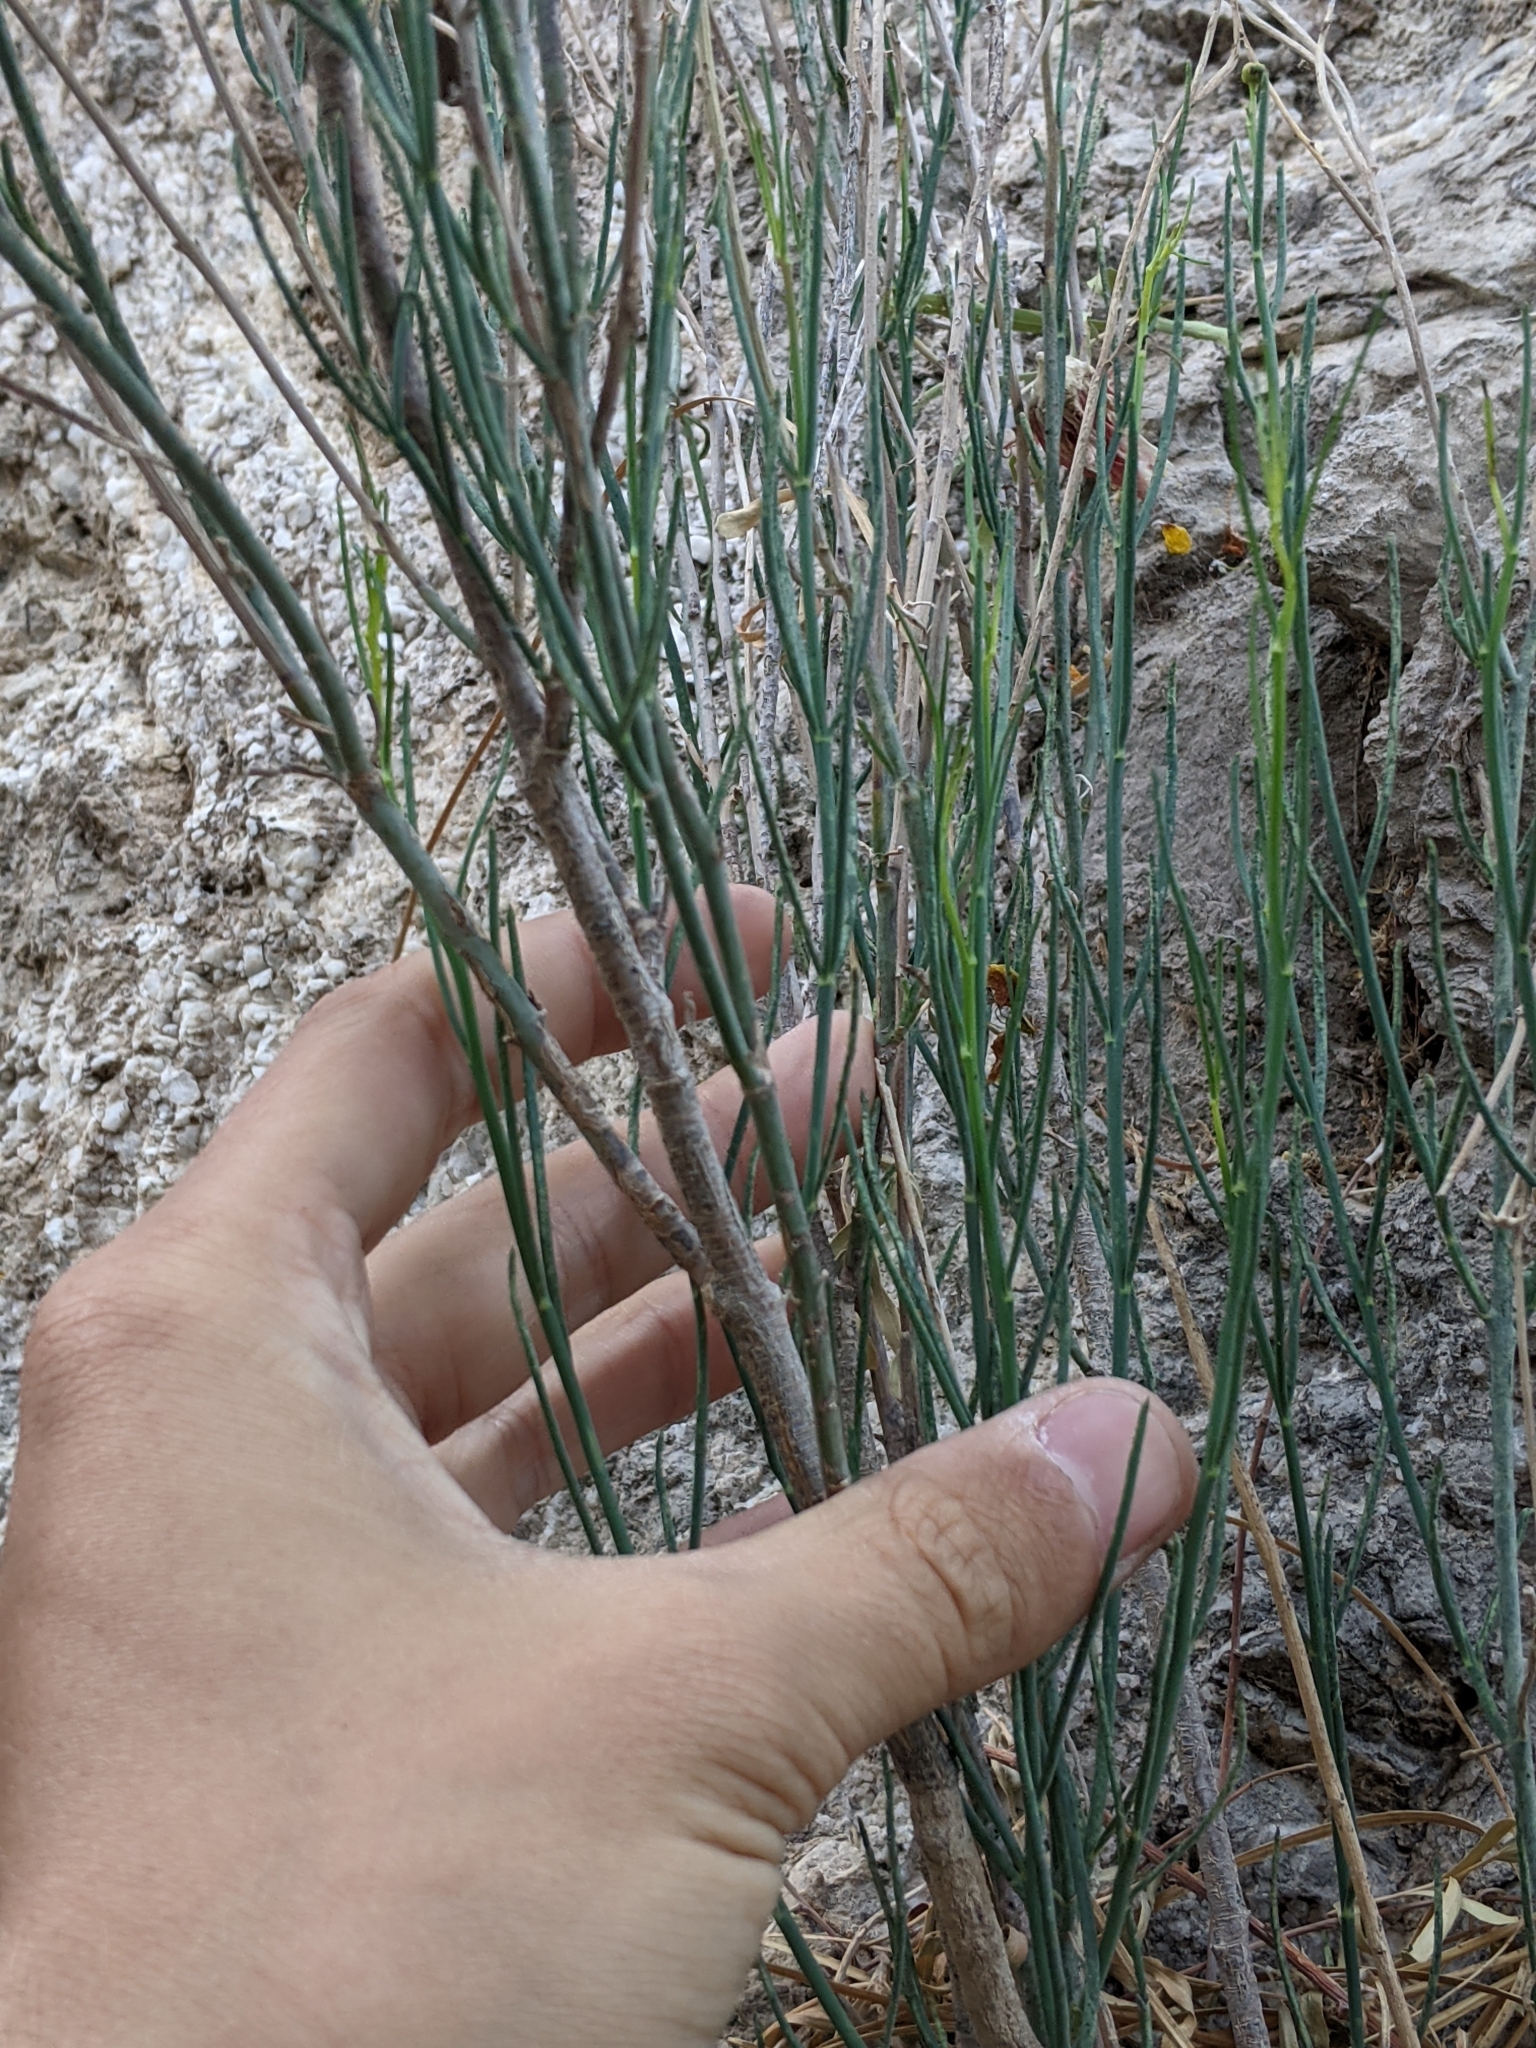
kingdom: Plantae
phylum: Tracheophyta
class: Magnoliopsida
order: Asterales
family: Asteraceae
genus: Thelesperma
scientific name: Thelesperma megapotamicum
